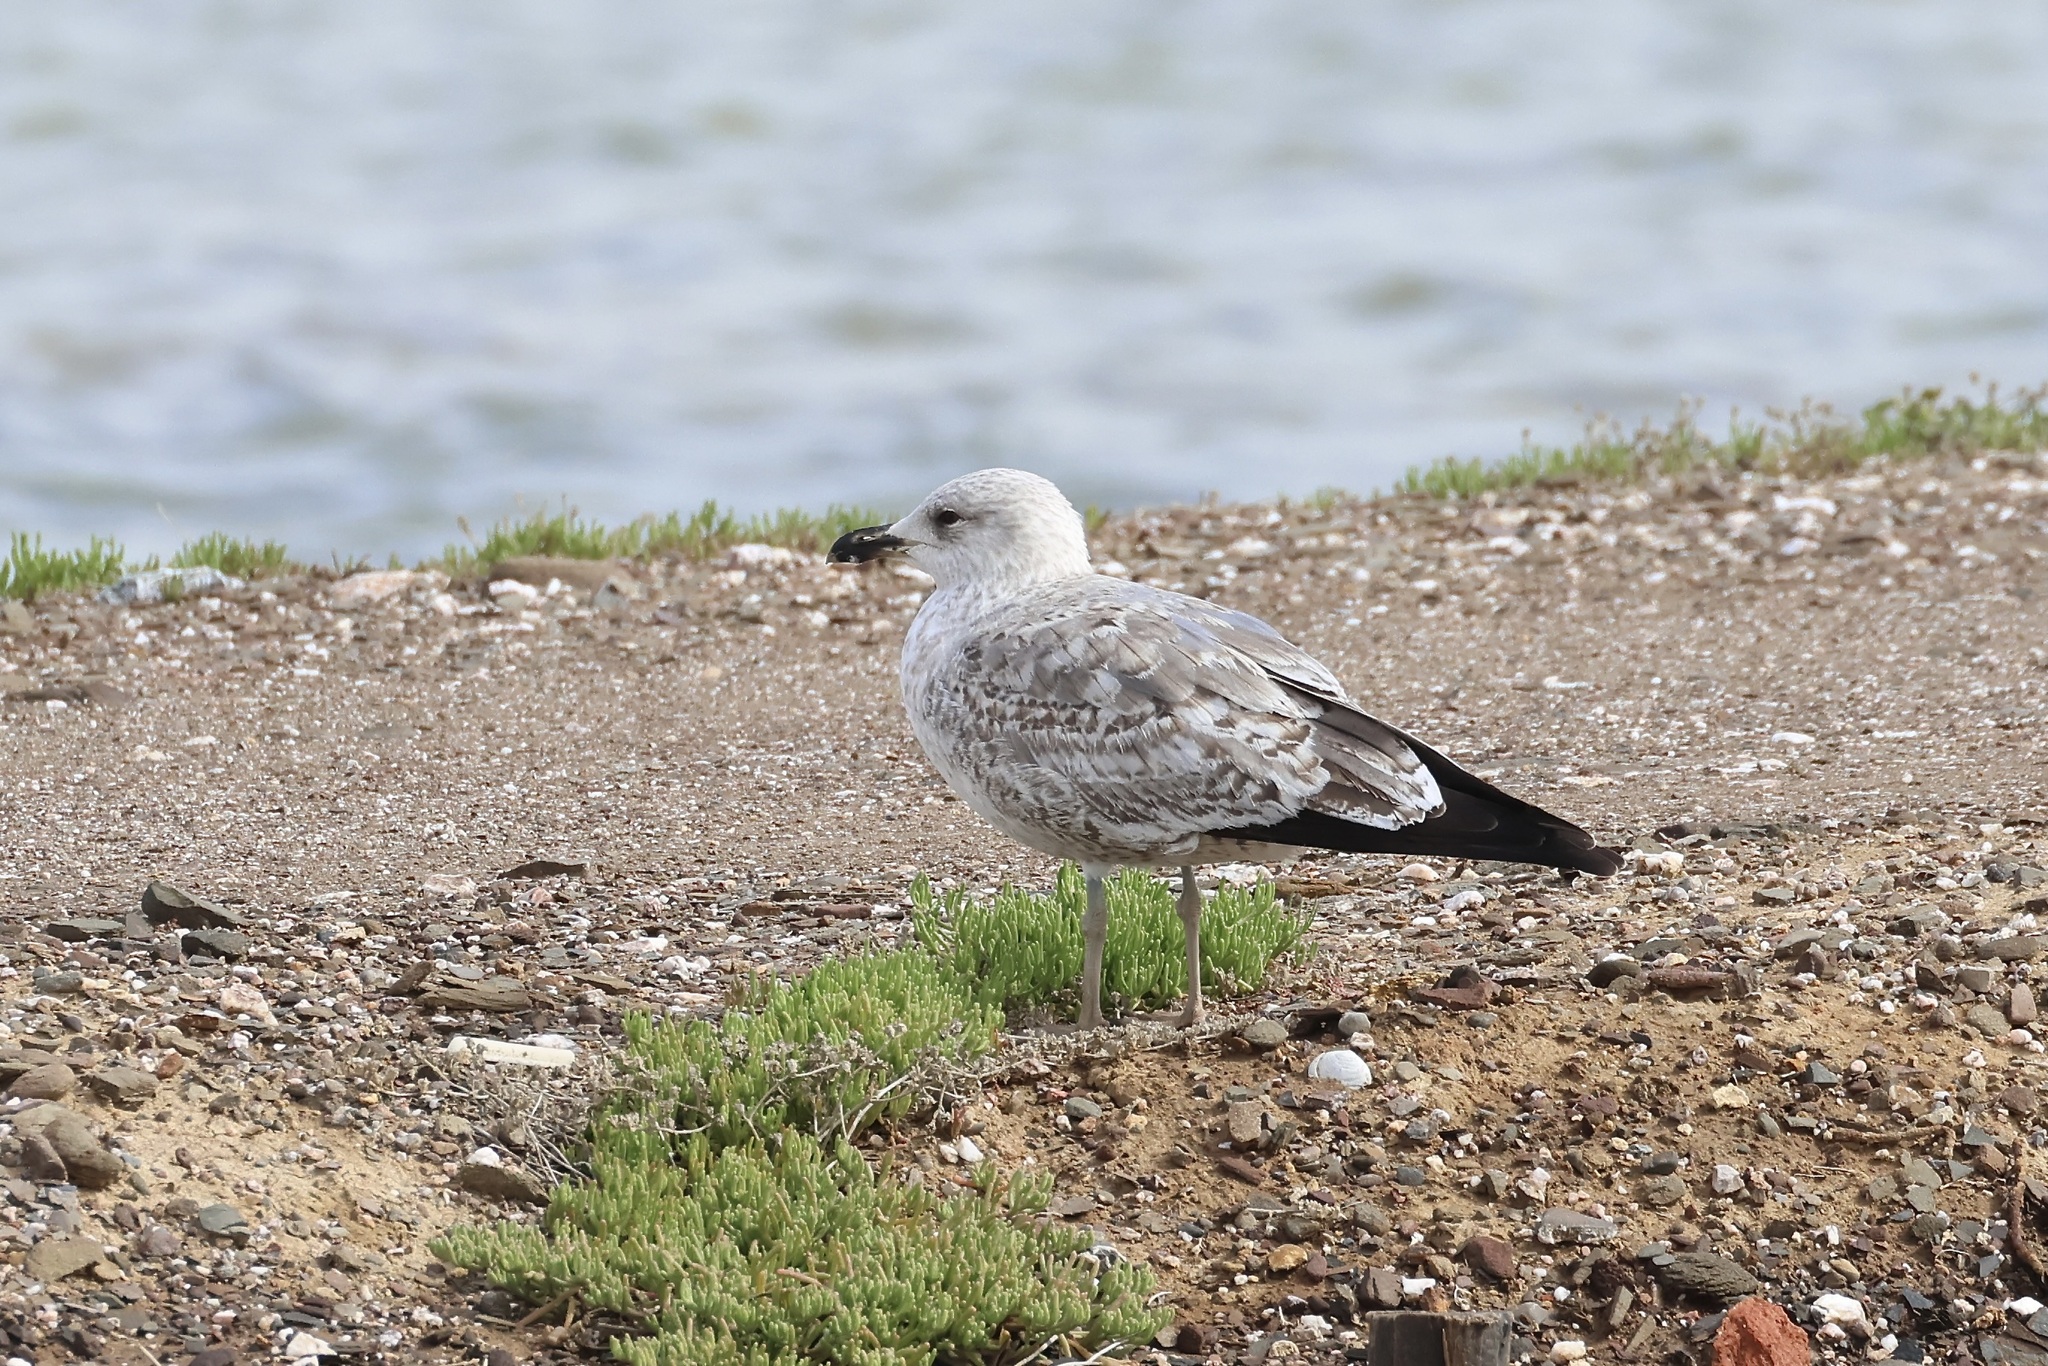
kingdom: Animalia
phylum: Chordata
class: Aves
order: Charadriiformes
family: Laridae
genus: Larus
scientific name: Larus michahellis
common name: Yellow-legged gull
